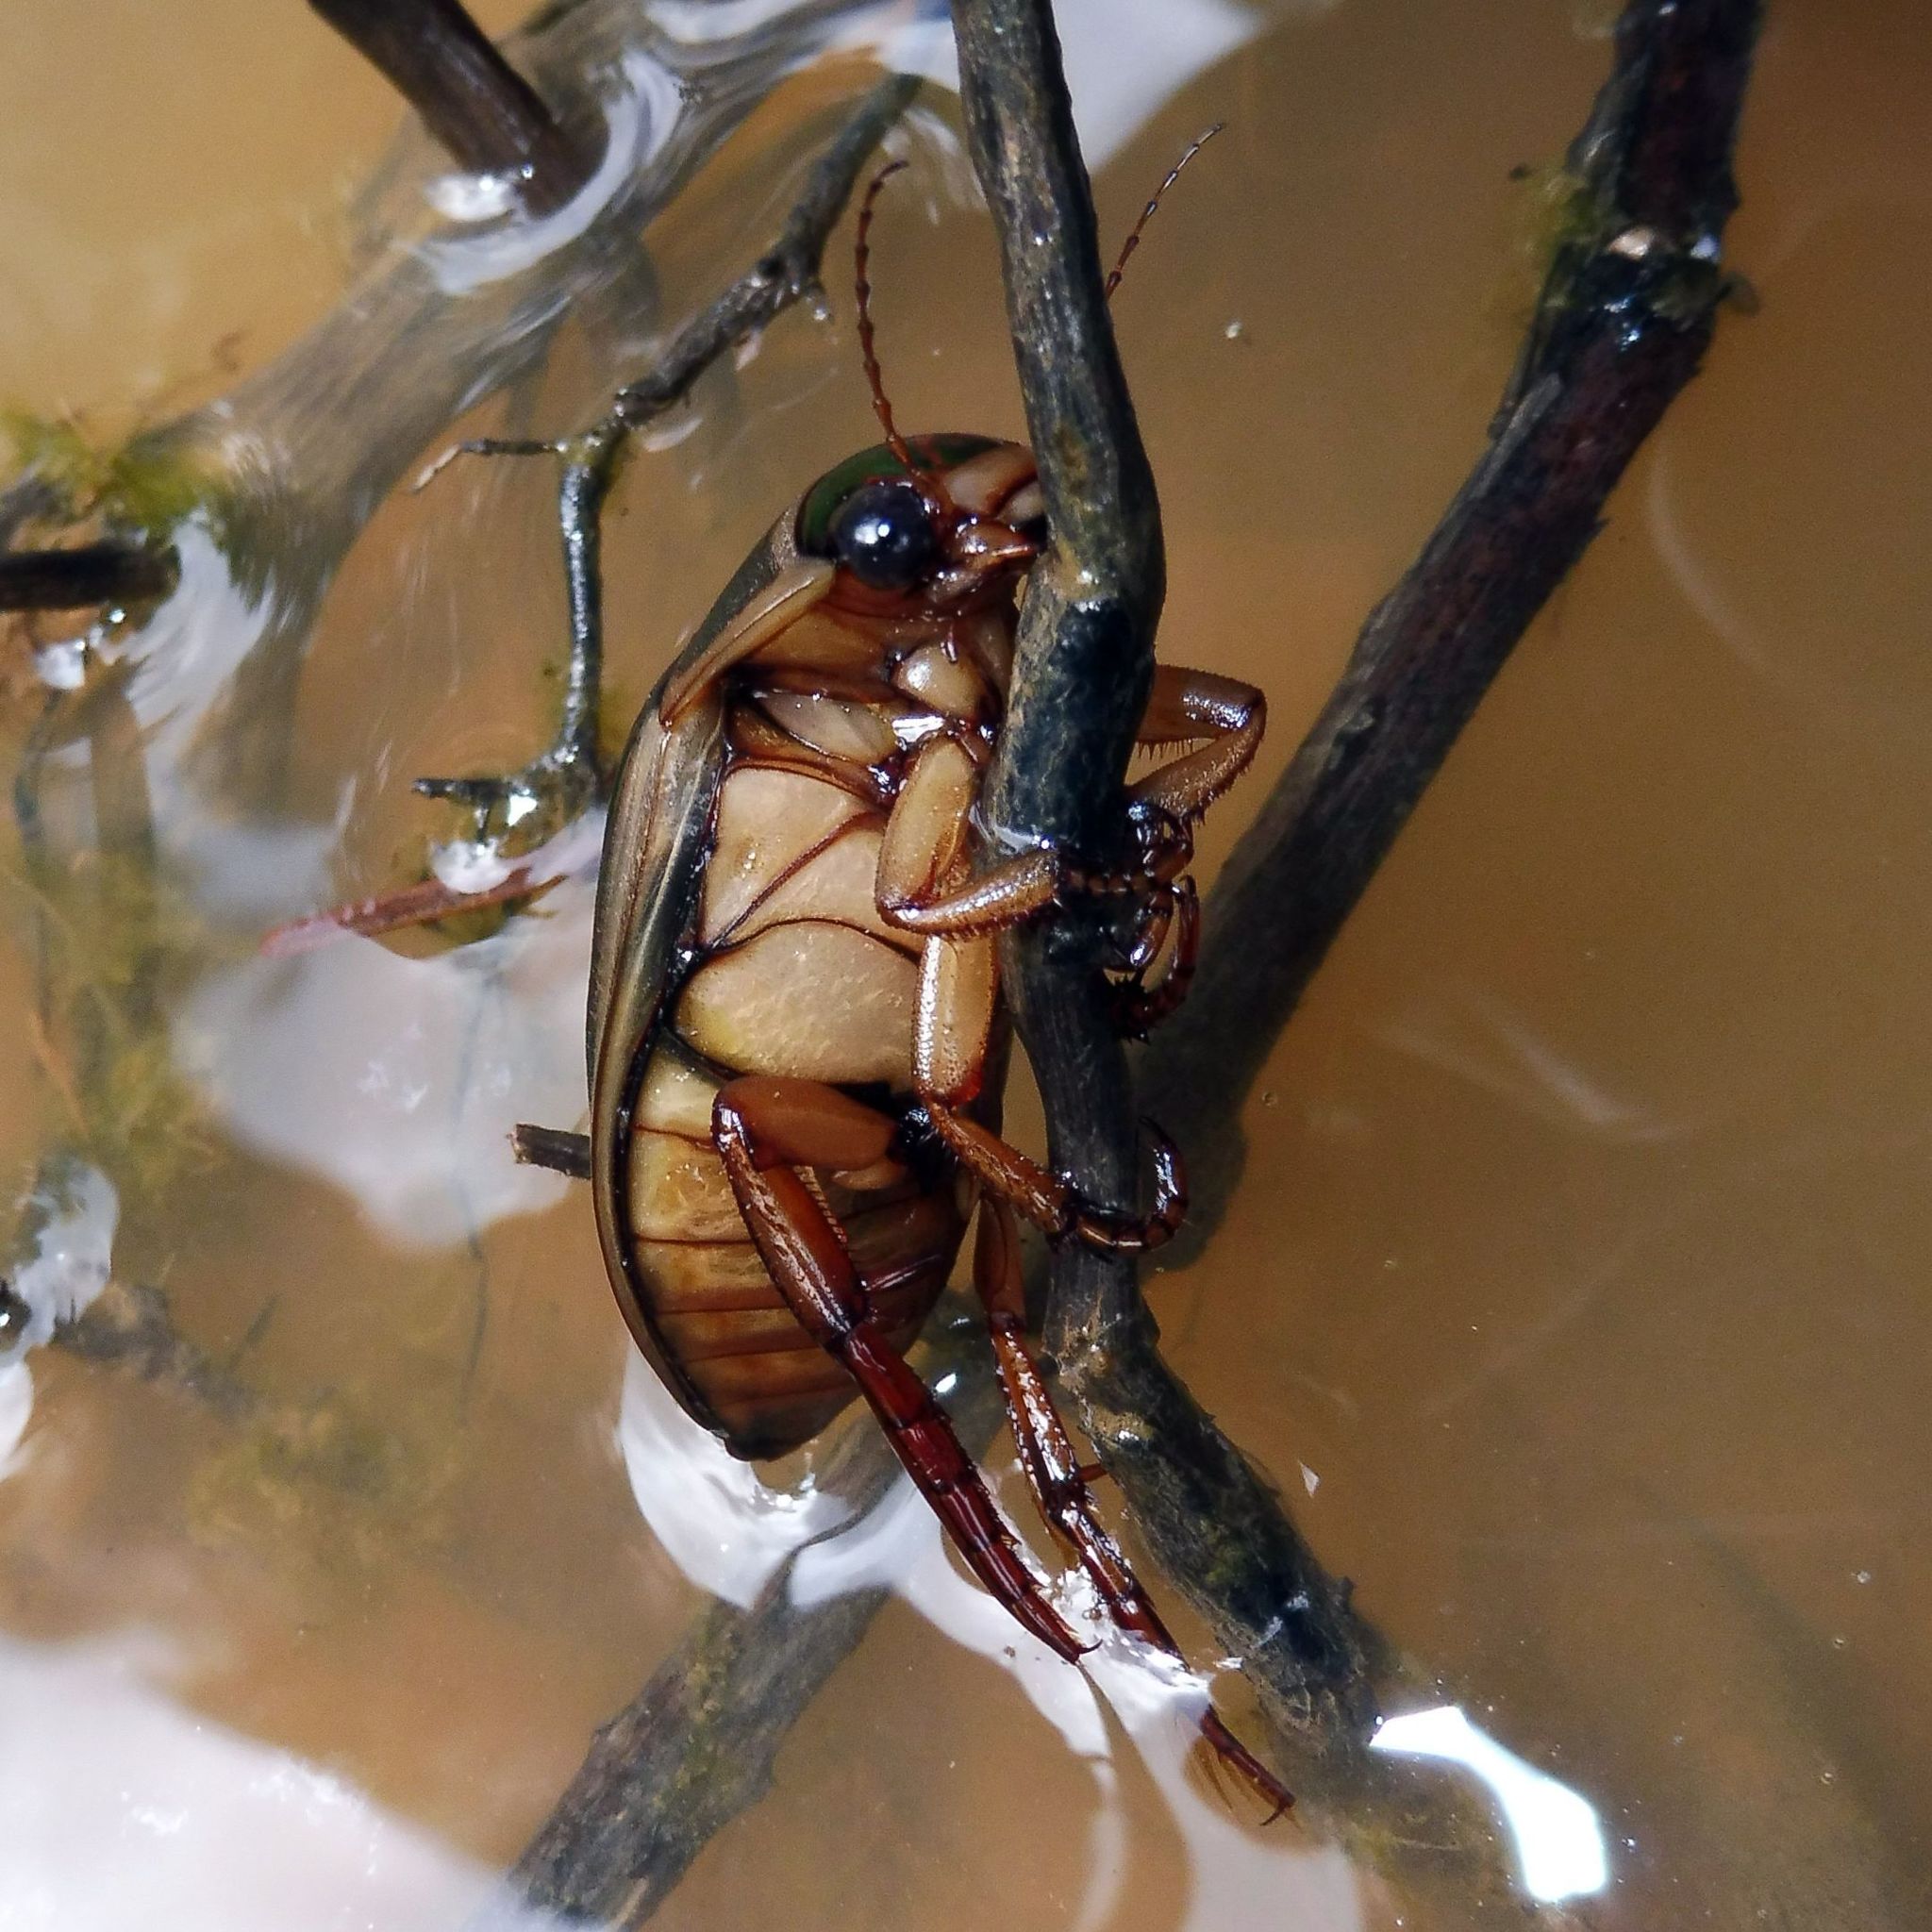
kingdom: Animalia
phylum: Arthropoda
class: Insecta
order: Coleoptera
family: Dytiscidae
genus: Dytiscus
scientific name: Dytiscus marginalis
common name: Great water beetle
